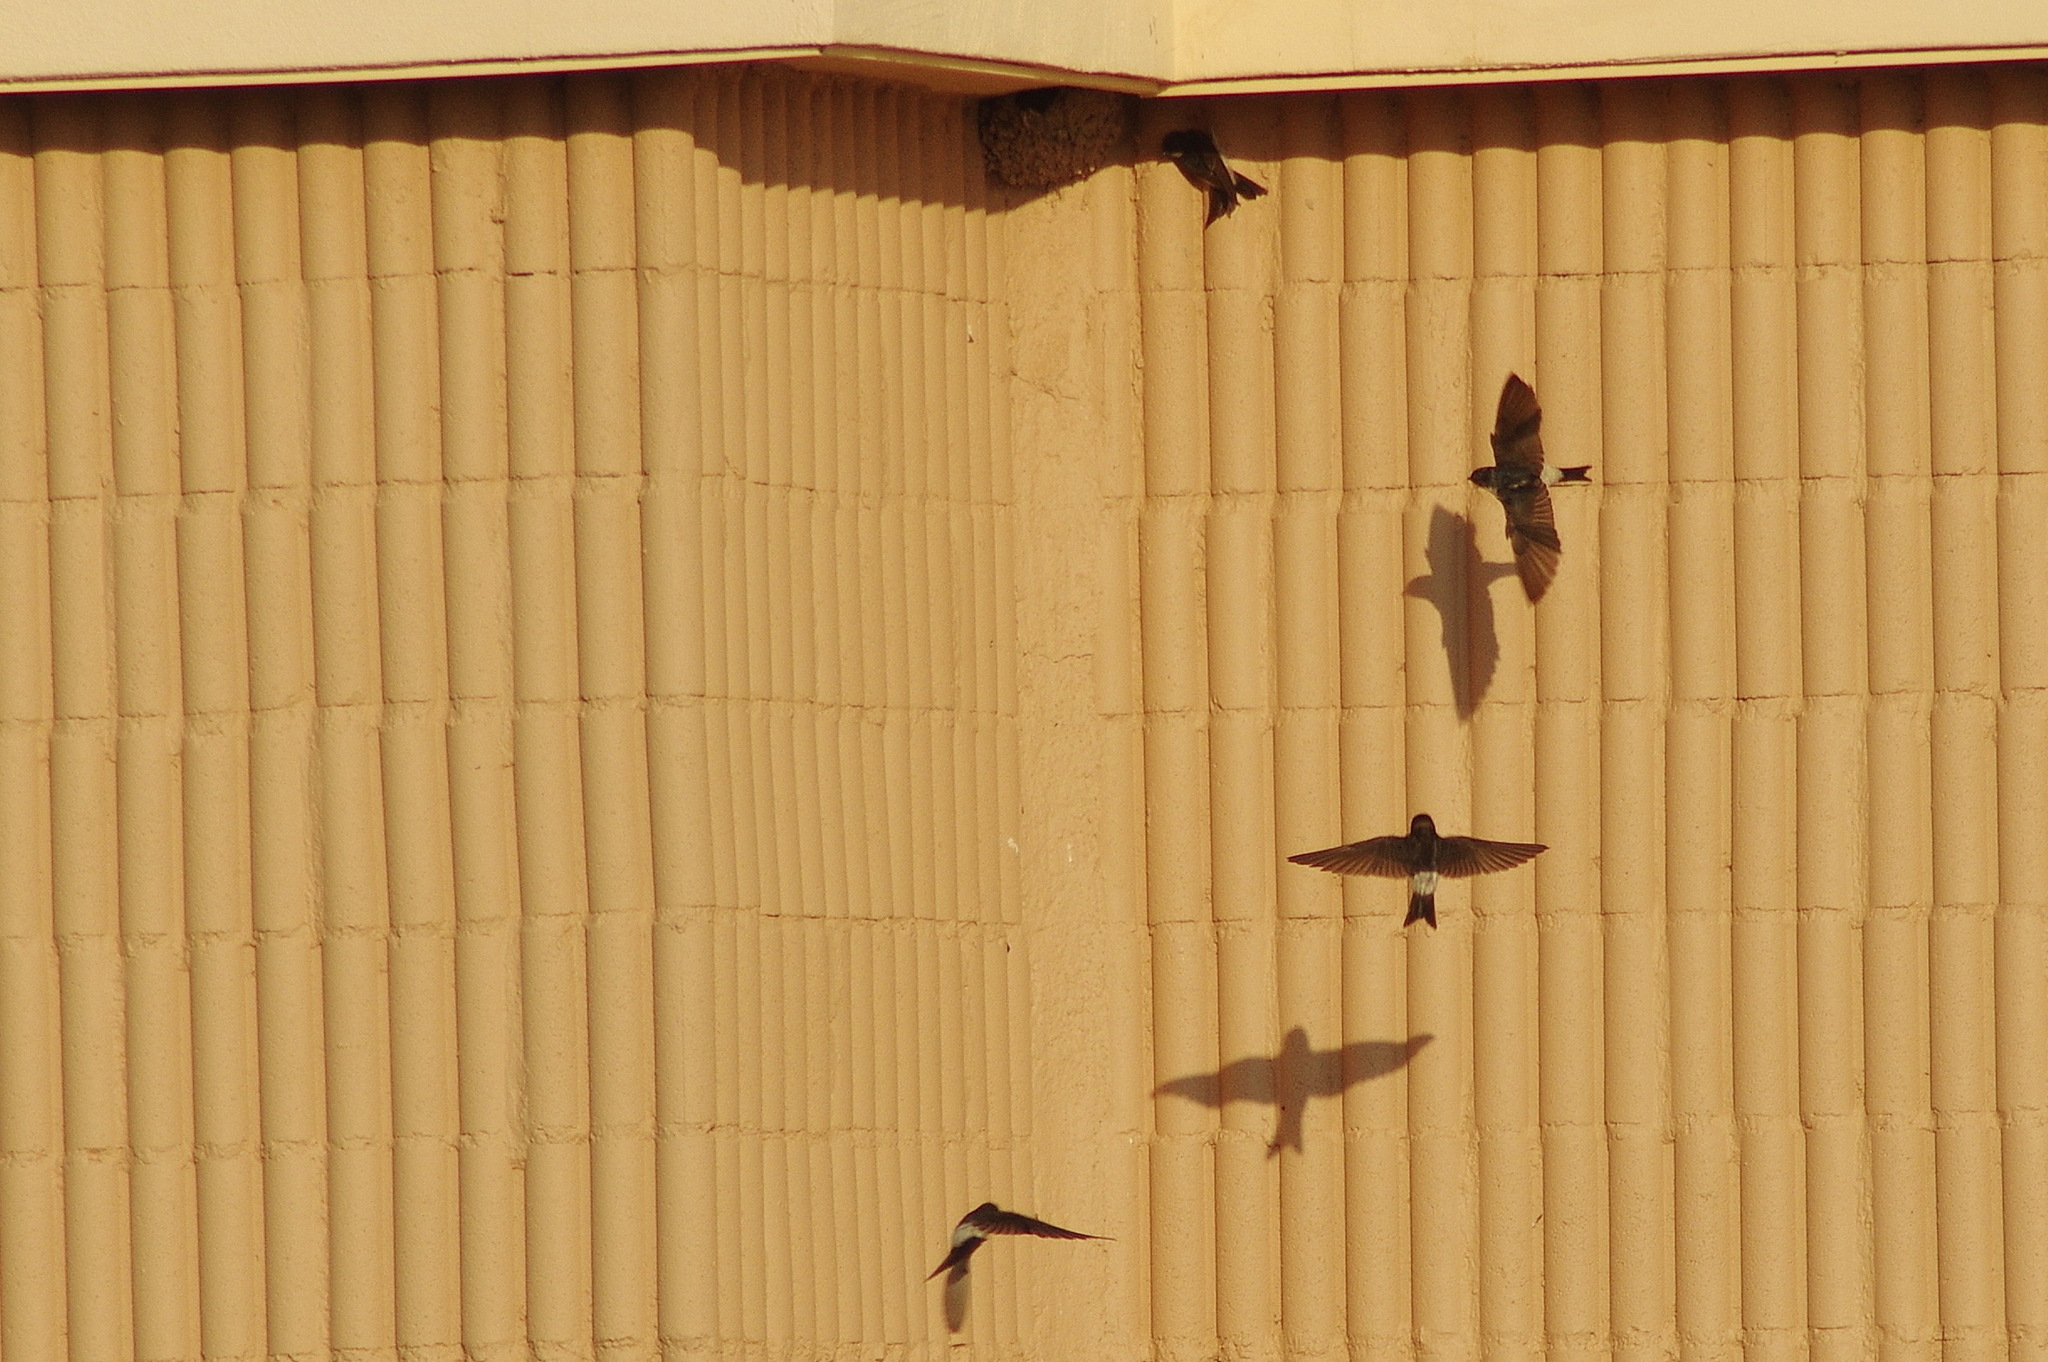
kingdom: Animalia
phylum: Chordata
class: Aves
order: Passeriformes
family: Hirundinidae
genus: Delichon
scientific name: Delichon urbicum
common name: Common house martin
